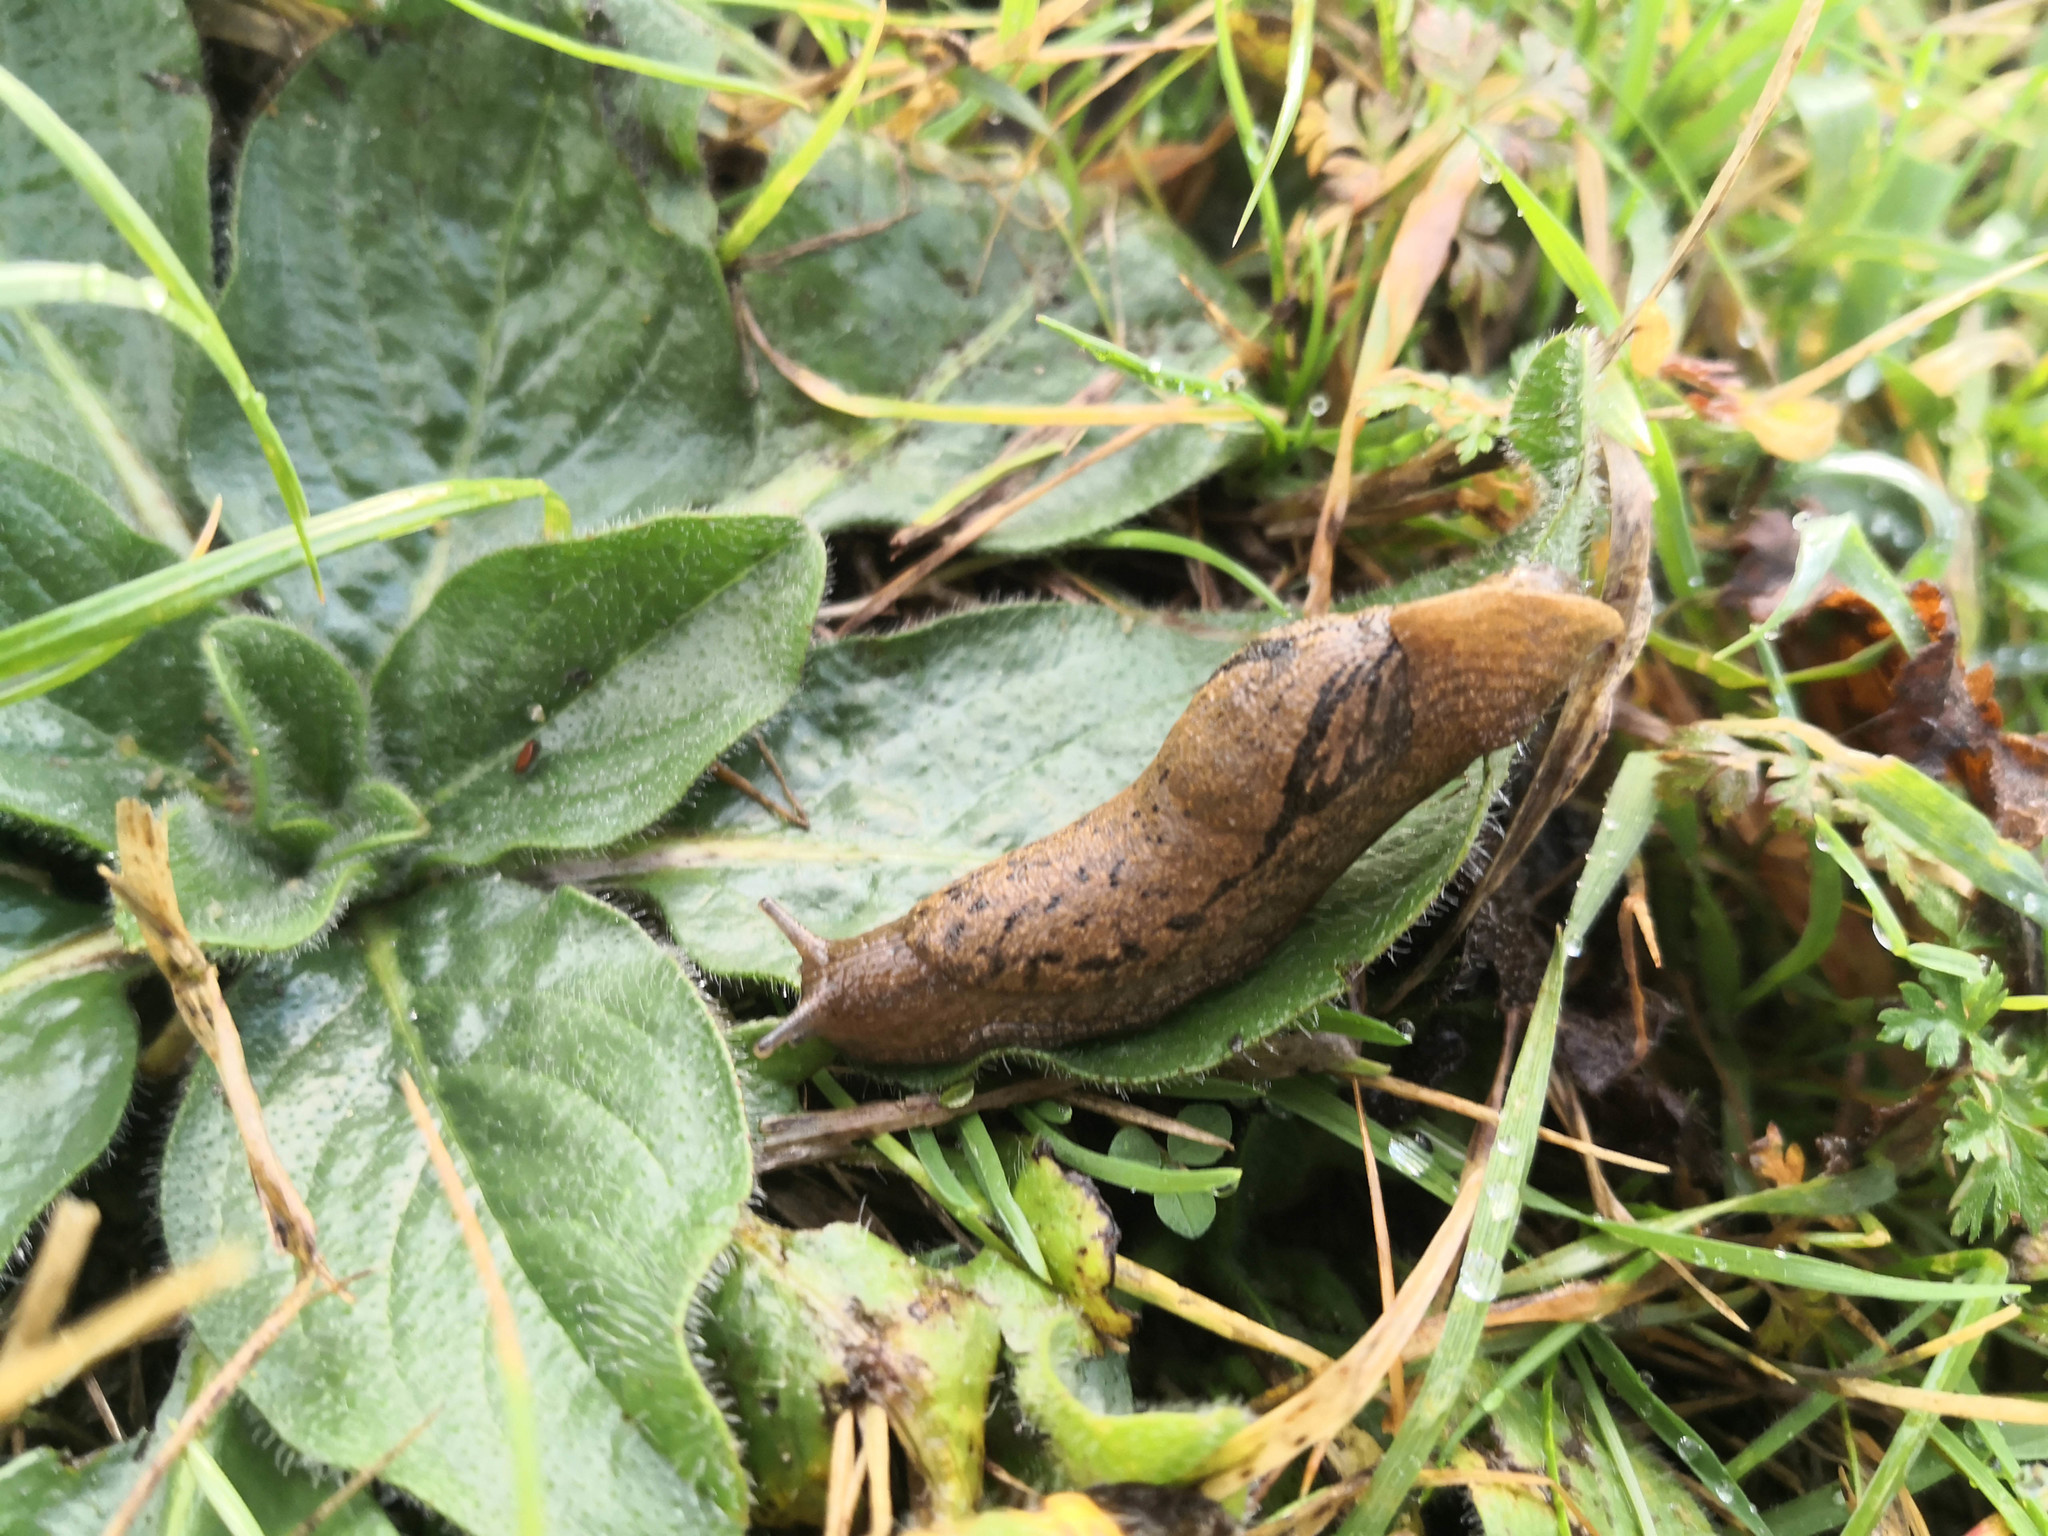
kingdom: Animalia
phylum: Mollusca
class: Gastropoda
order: Stylommatophora
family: Parmacellidae
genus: Drusia
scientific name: Drusia valenciennii
